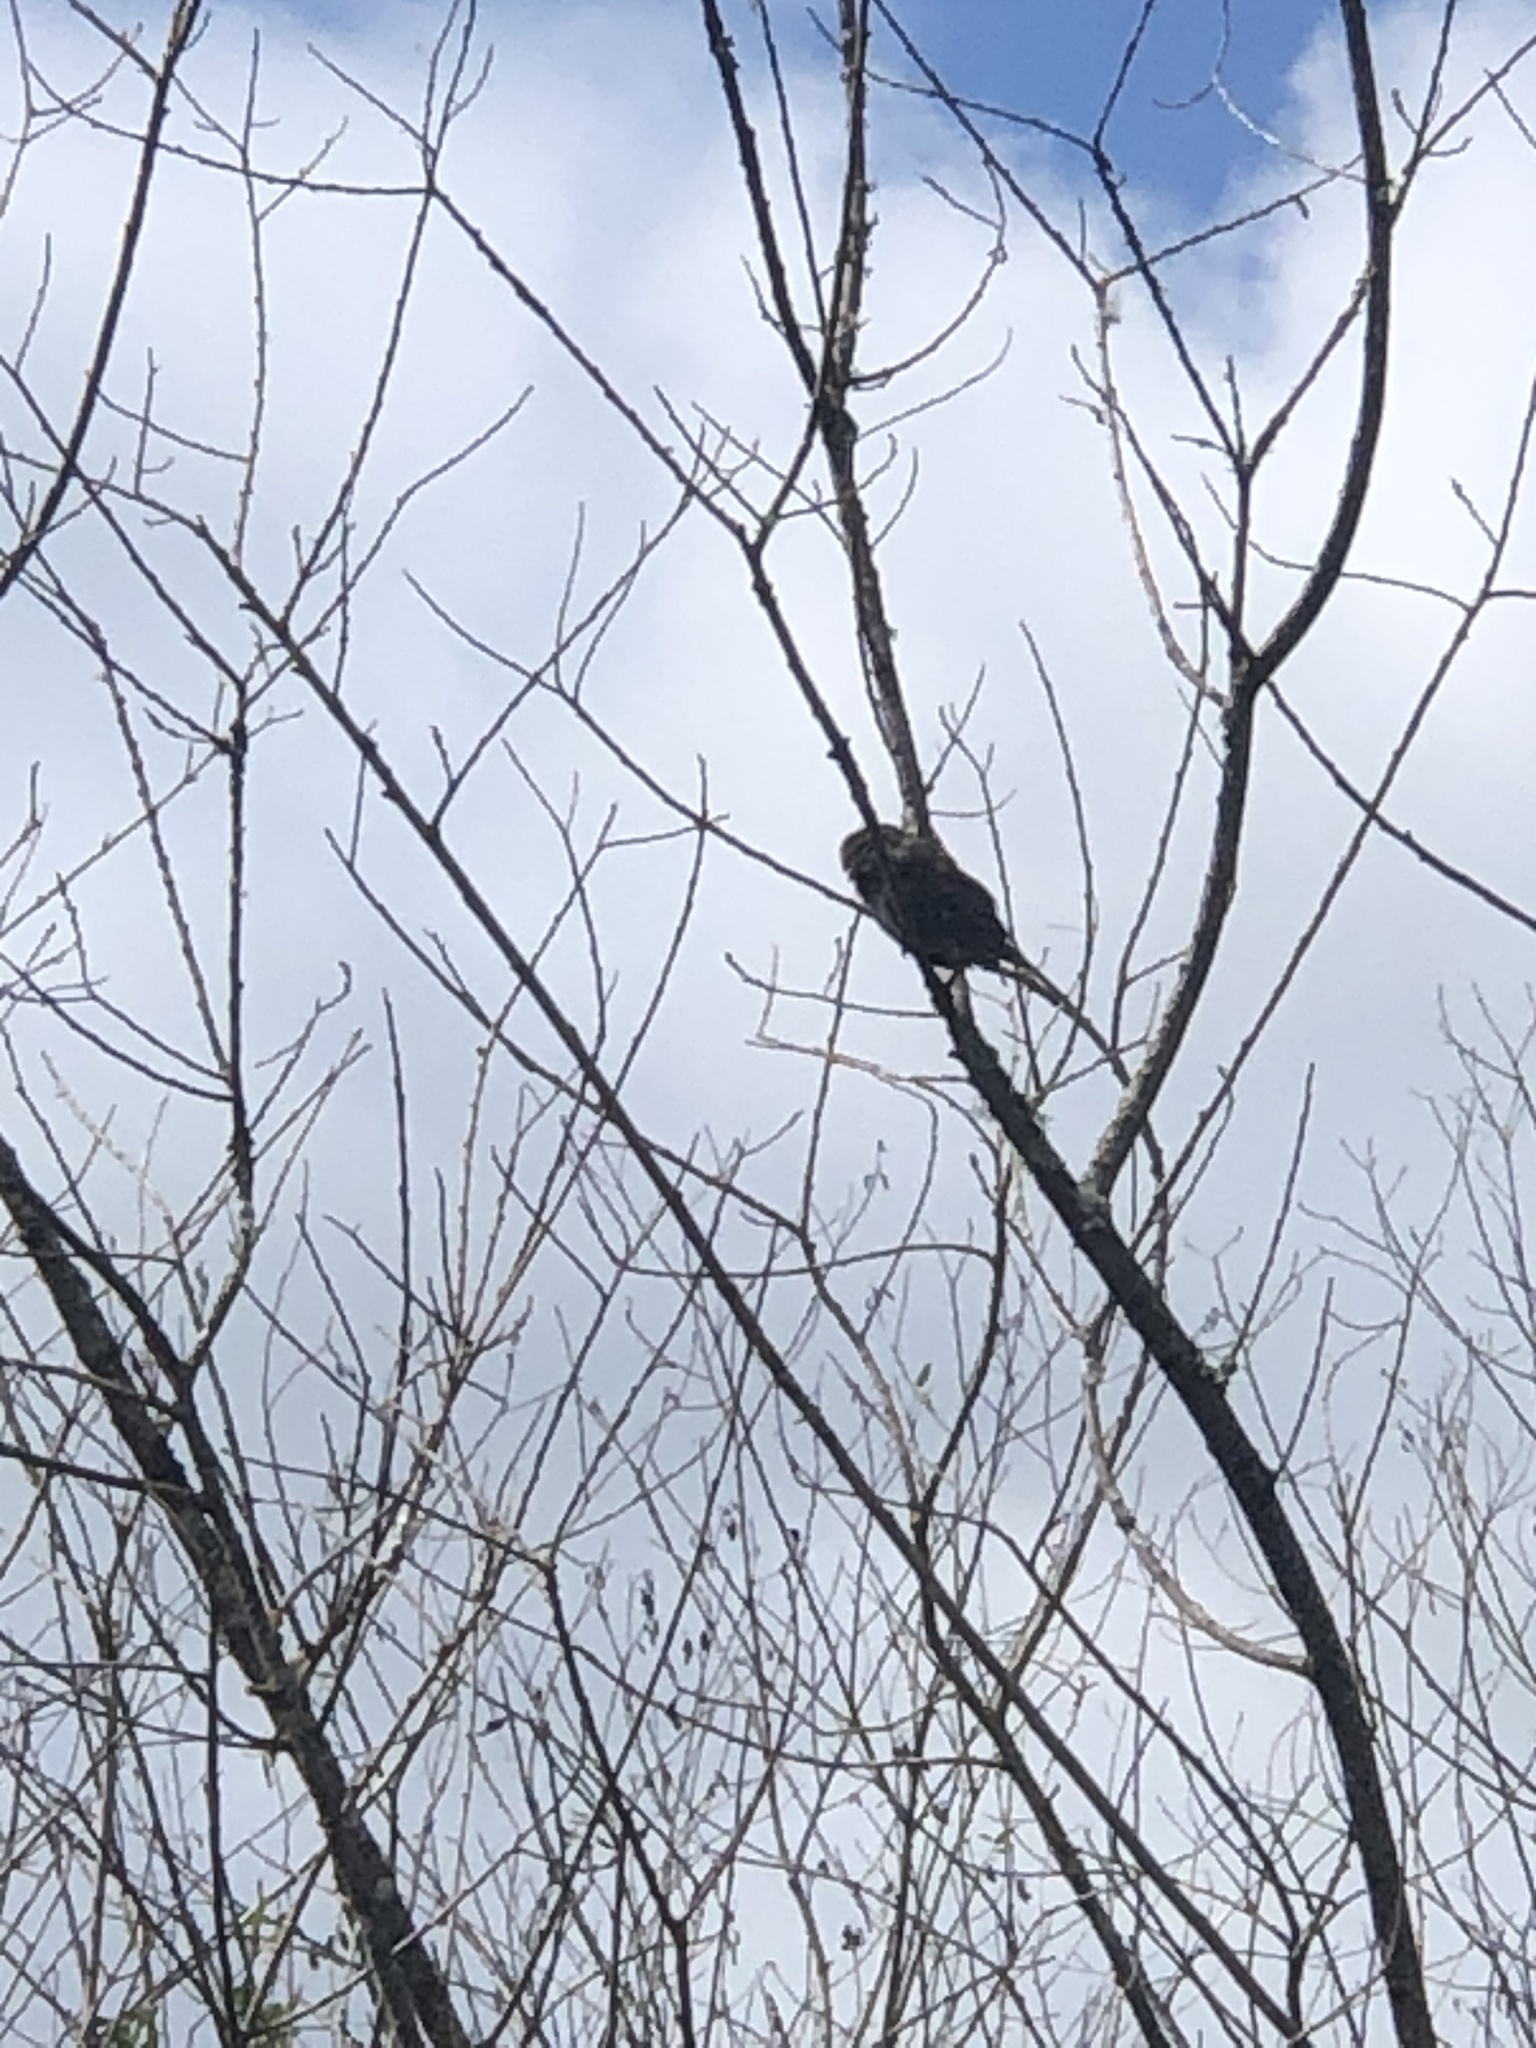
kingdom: Animalia
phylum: Chordata
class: Aves
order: Passeriformes
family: Passerellidae
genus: Melospiza
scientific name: Melospiza melodia
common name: Song sparrow
